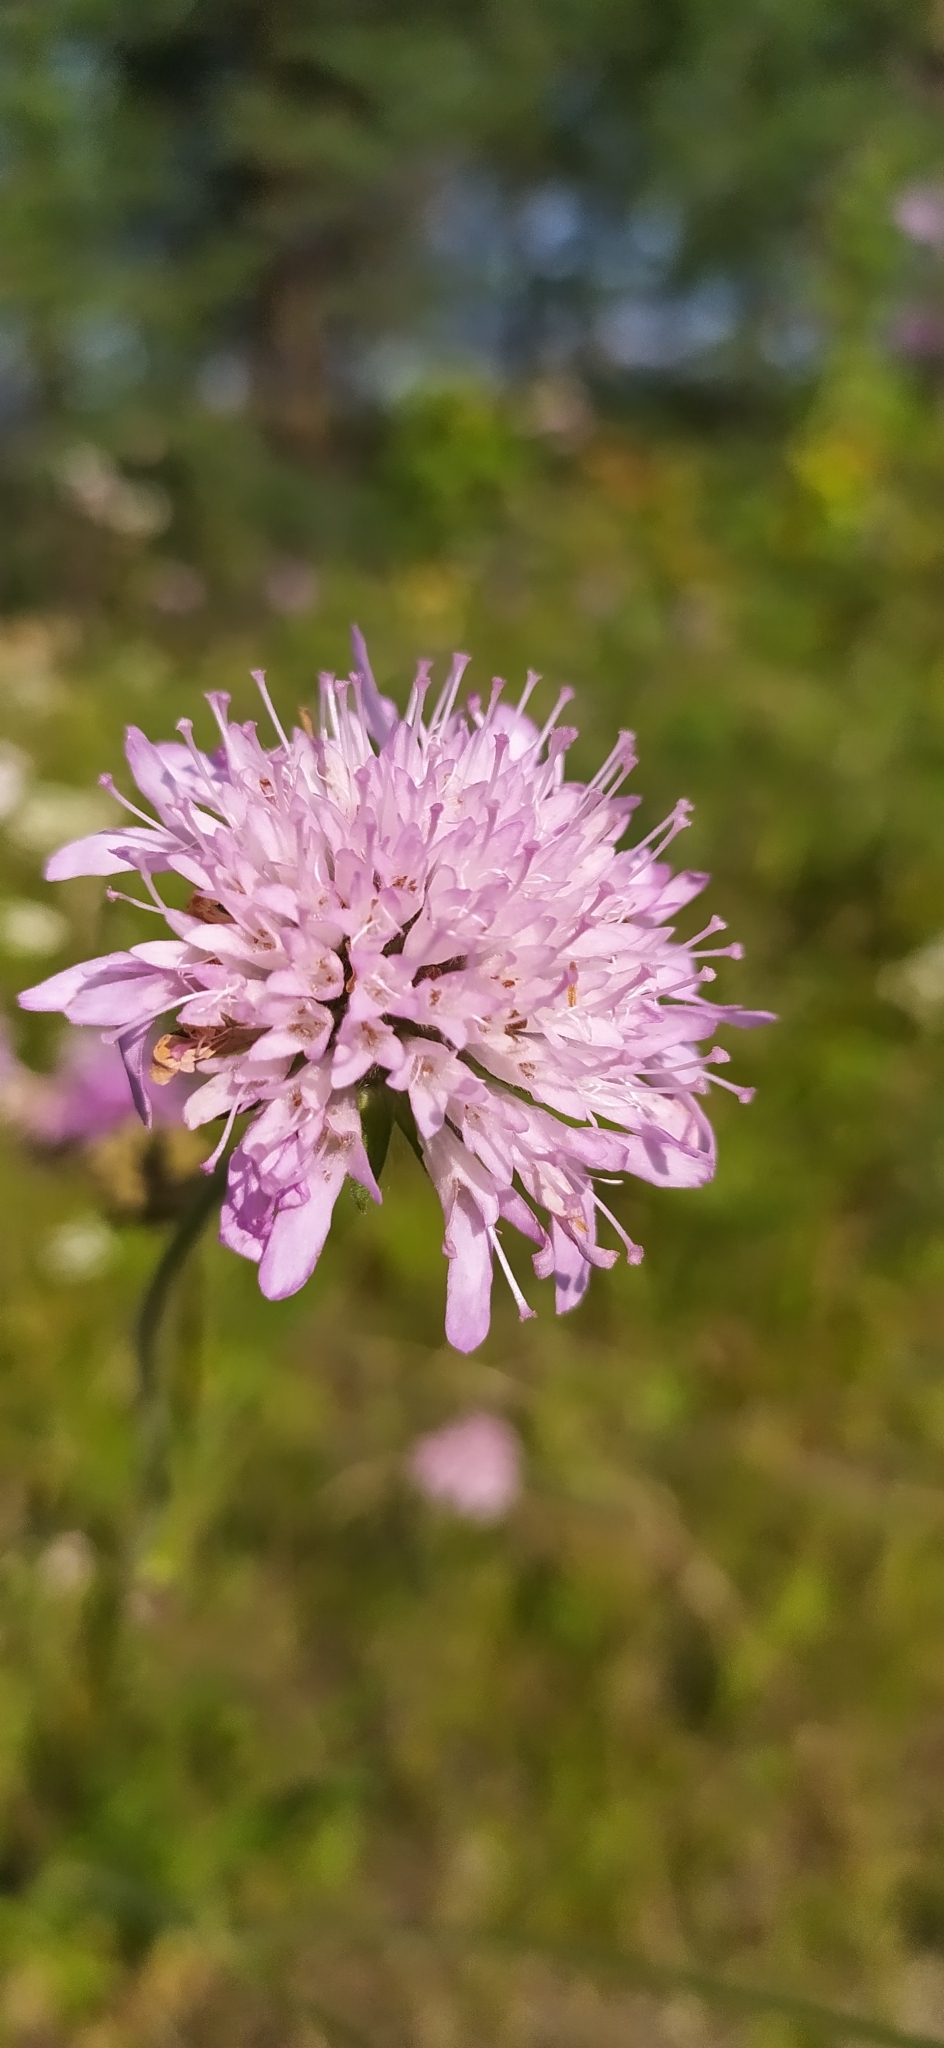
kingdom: Plantae
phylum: Tracheophyta
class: Magnoliopsida
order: Dipsacales
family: Caprifoliaceae
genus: Knautia
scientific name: Knautia arvensis
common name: Field scabiosa
